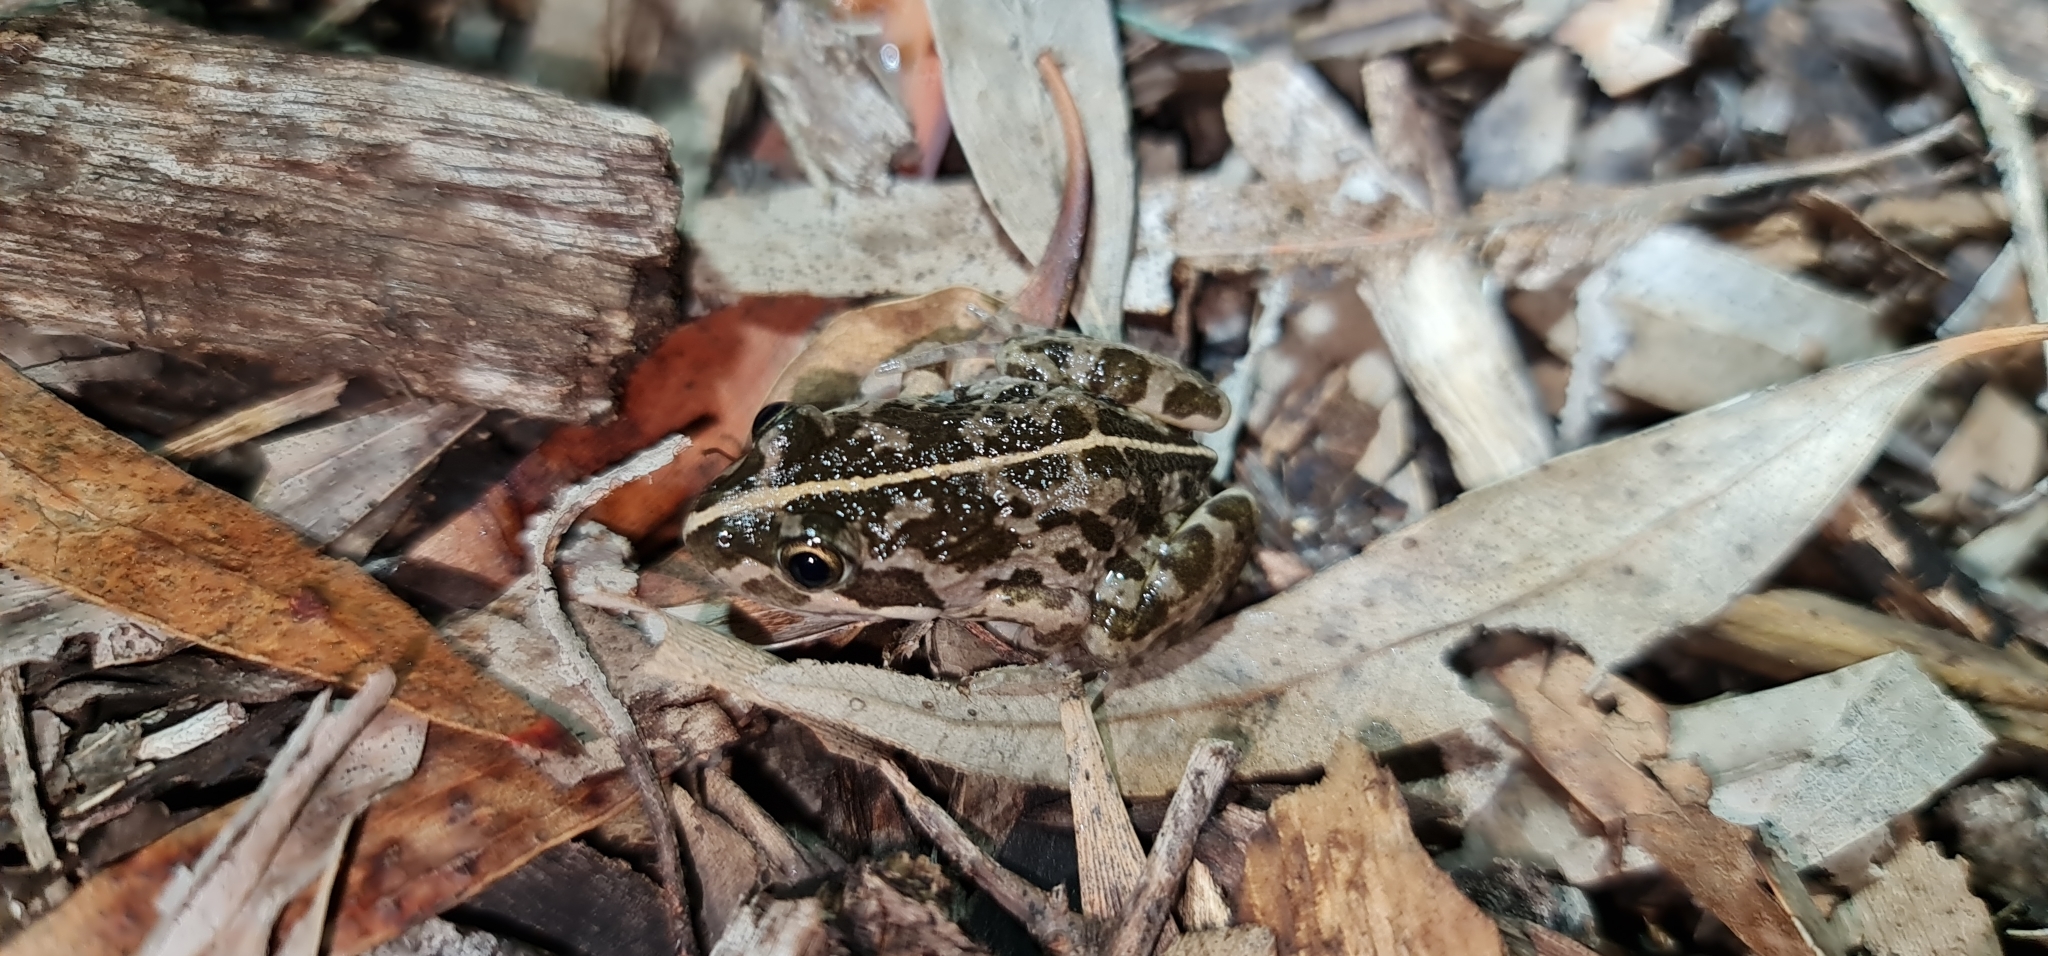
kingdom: Animalia
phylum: Chordata
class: Amphibia
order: Anura
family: Limnodynastidae
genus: Limnodynastes
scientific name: Limnodynastes tasmaniensis
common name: Spotted marsh frog
